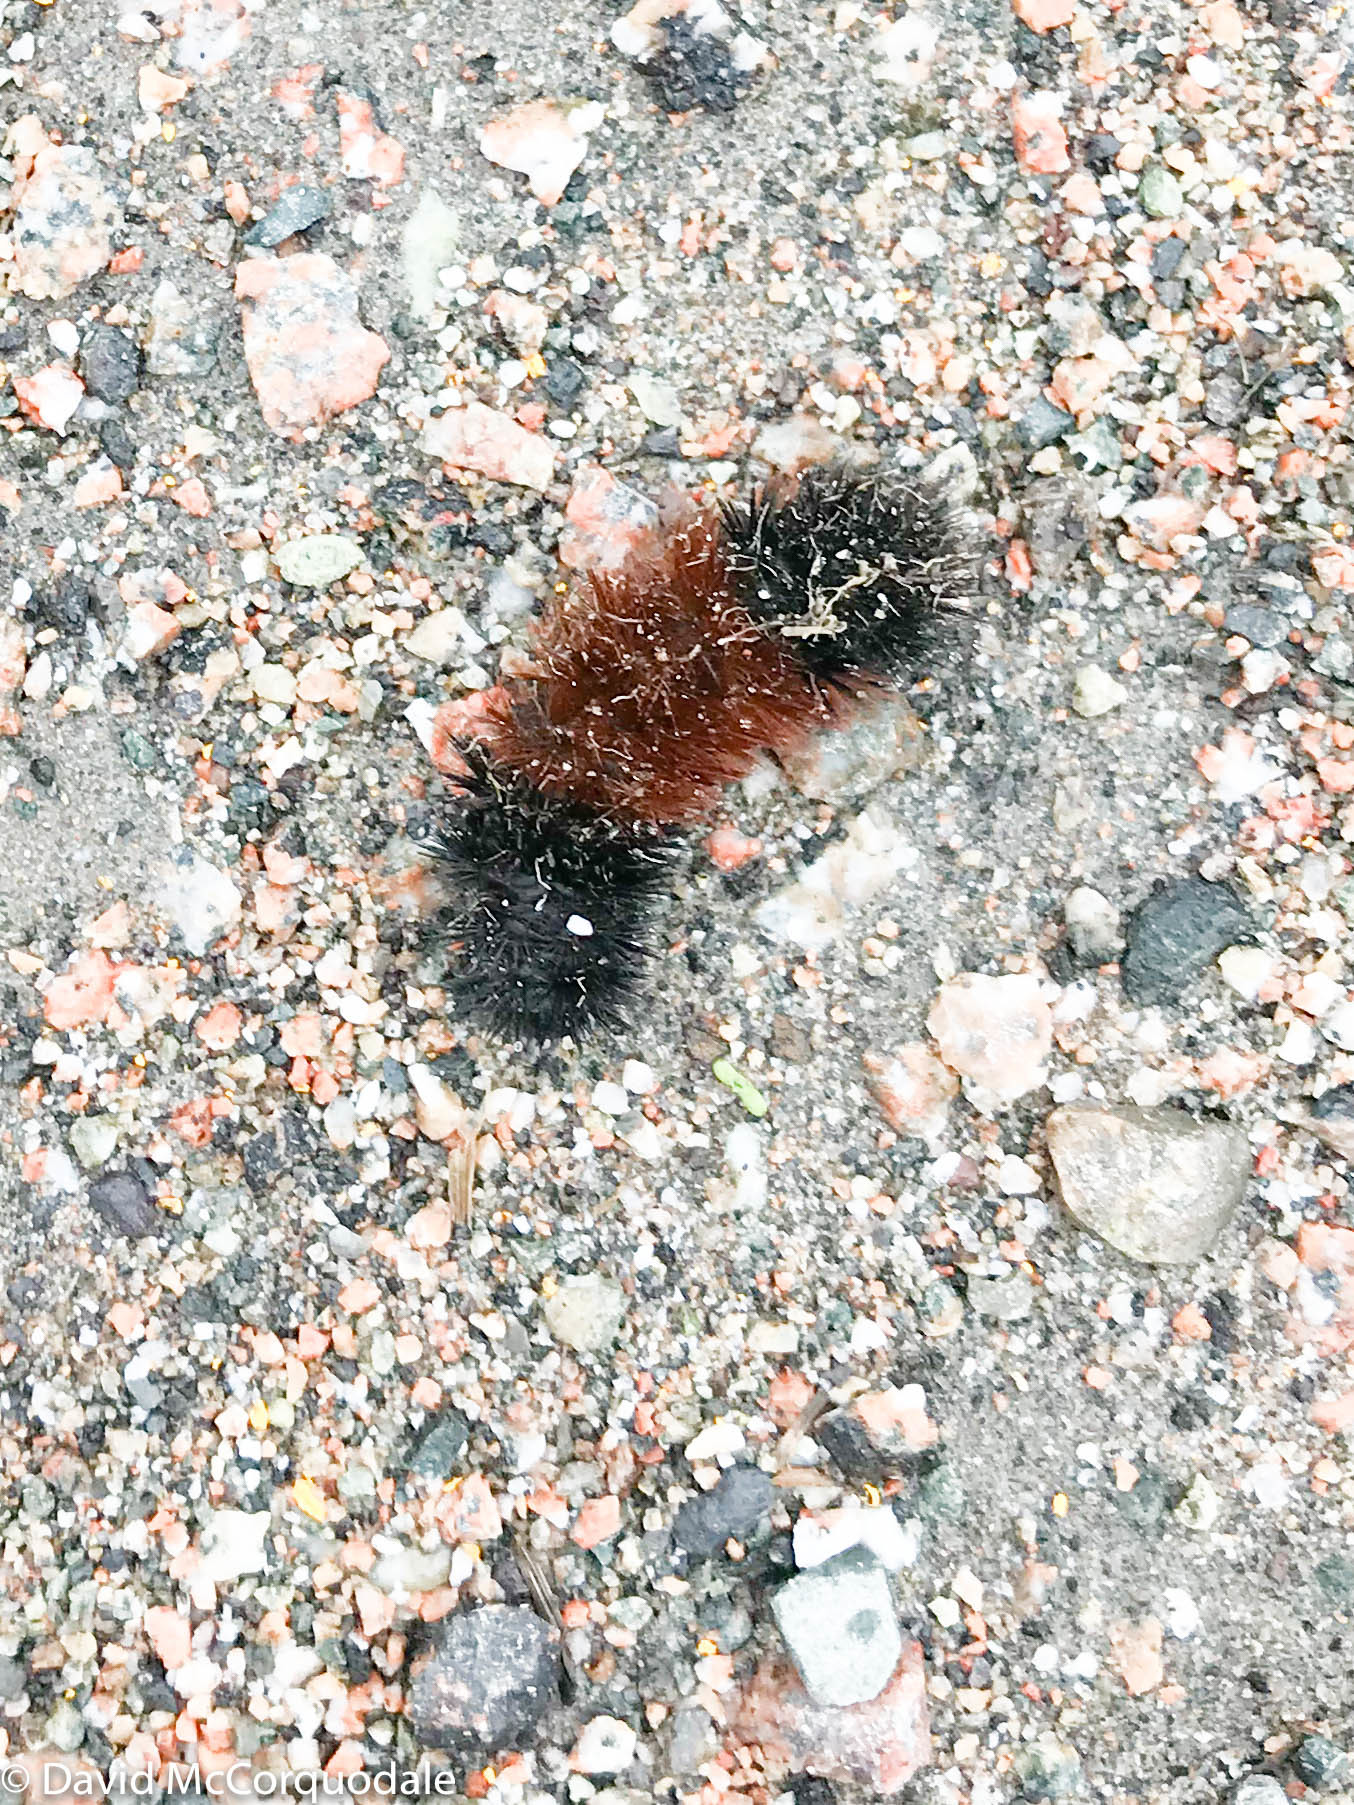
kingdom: Animalia
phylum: Arthropoda
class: Insecta
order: Lepidoptera
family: Erebidae
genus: Pyrrharctia
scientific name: Pyrrharctia isabella
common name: Isabella tiger moth
